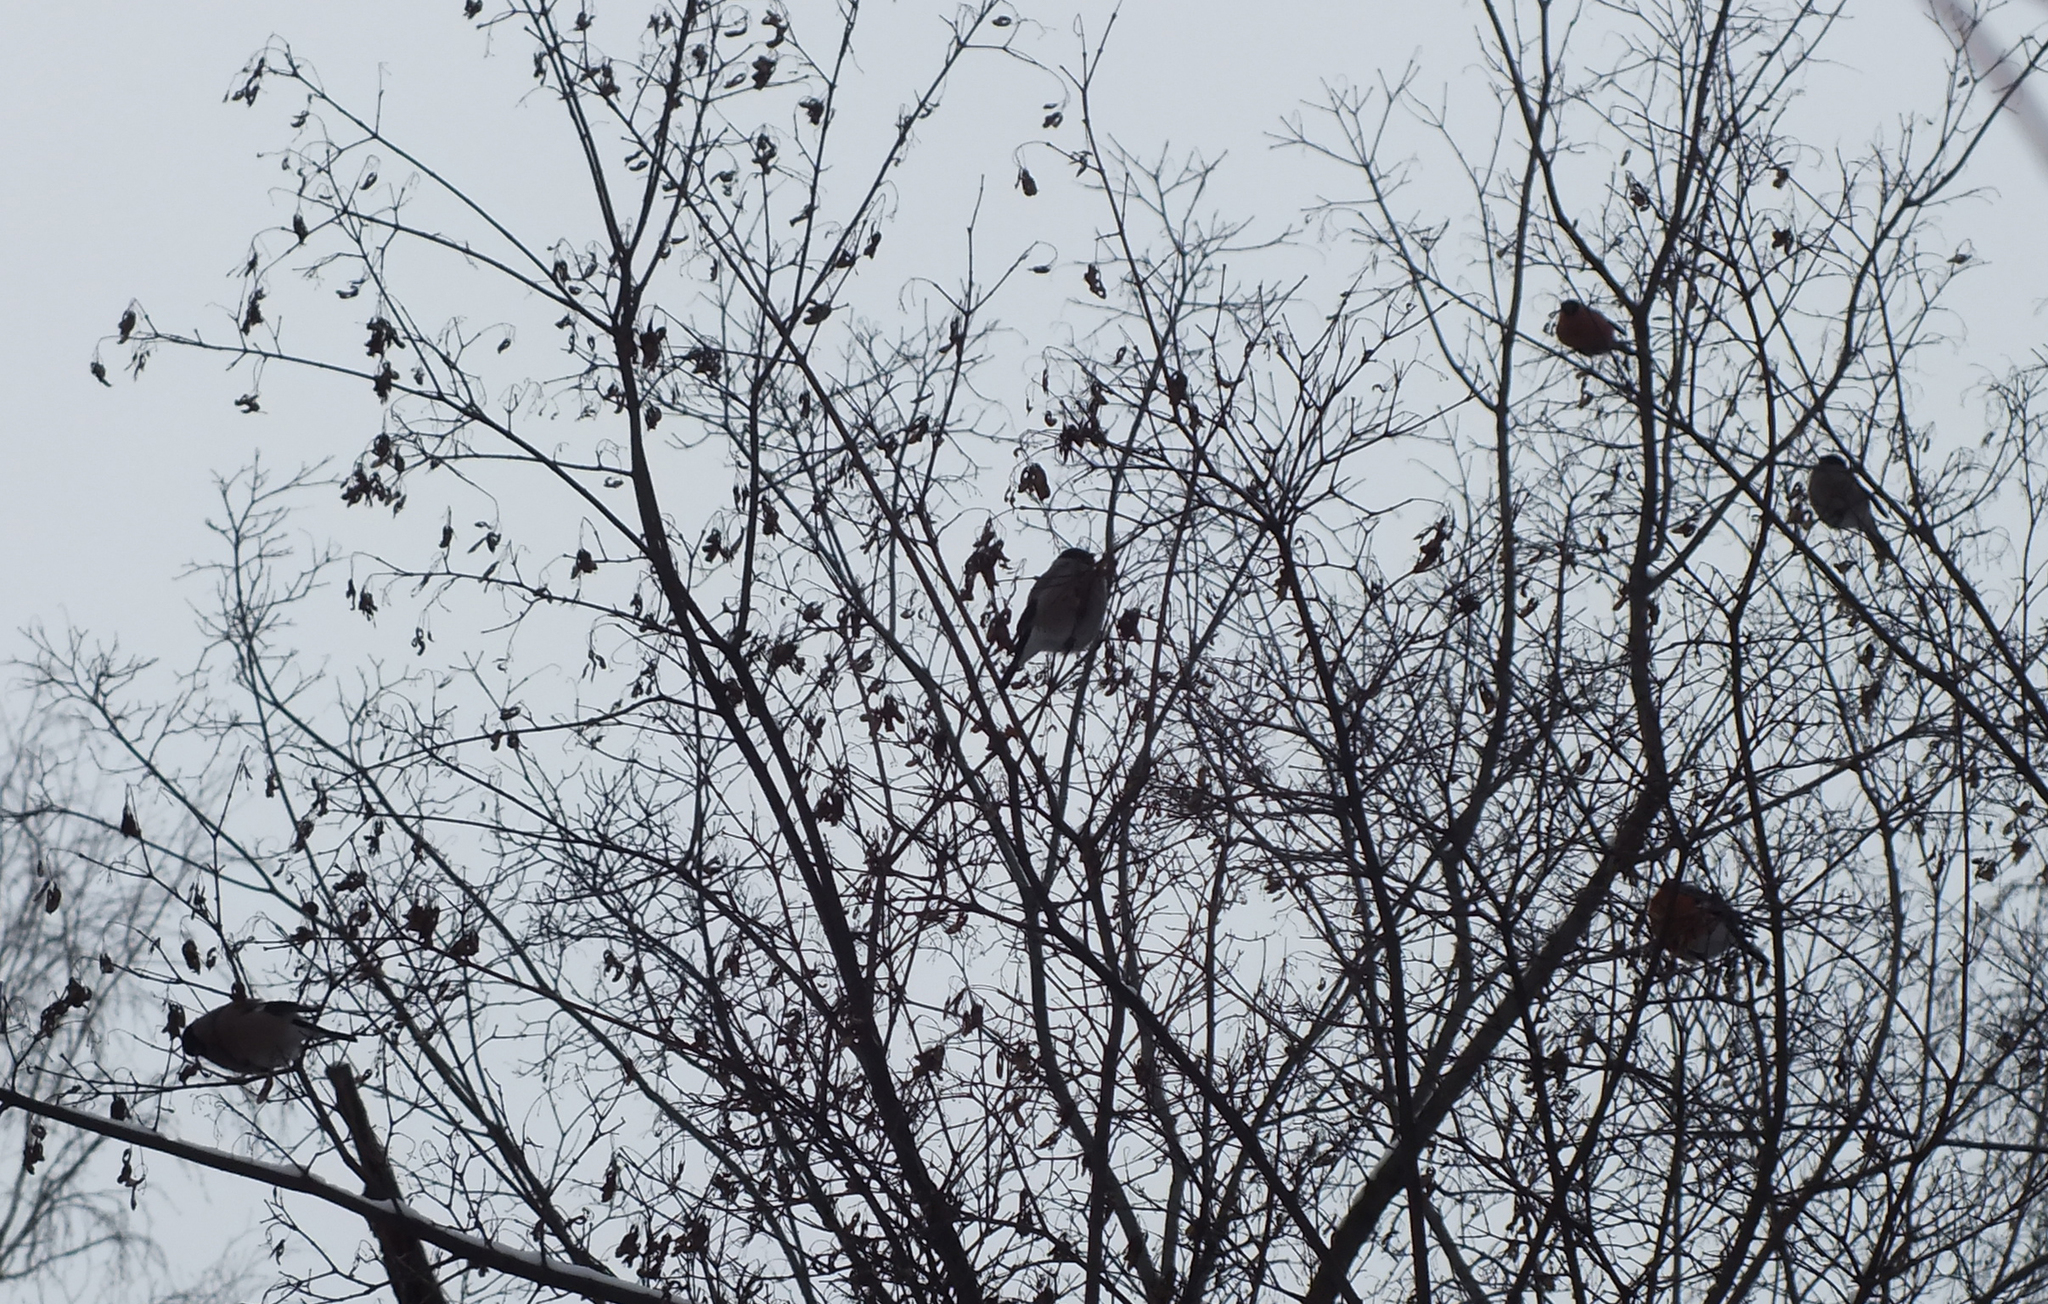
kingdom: Animalia
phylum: Chordata
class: Aves
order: Passeriformes
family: Fringillidae
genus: Pyrrhula
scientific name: Pyrrhula pyrrhula
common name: Eurasian bullfinch
